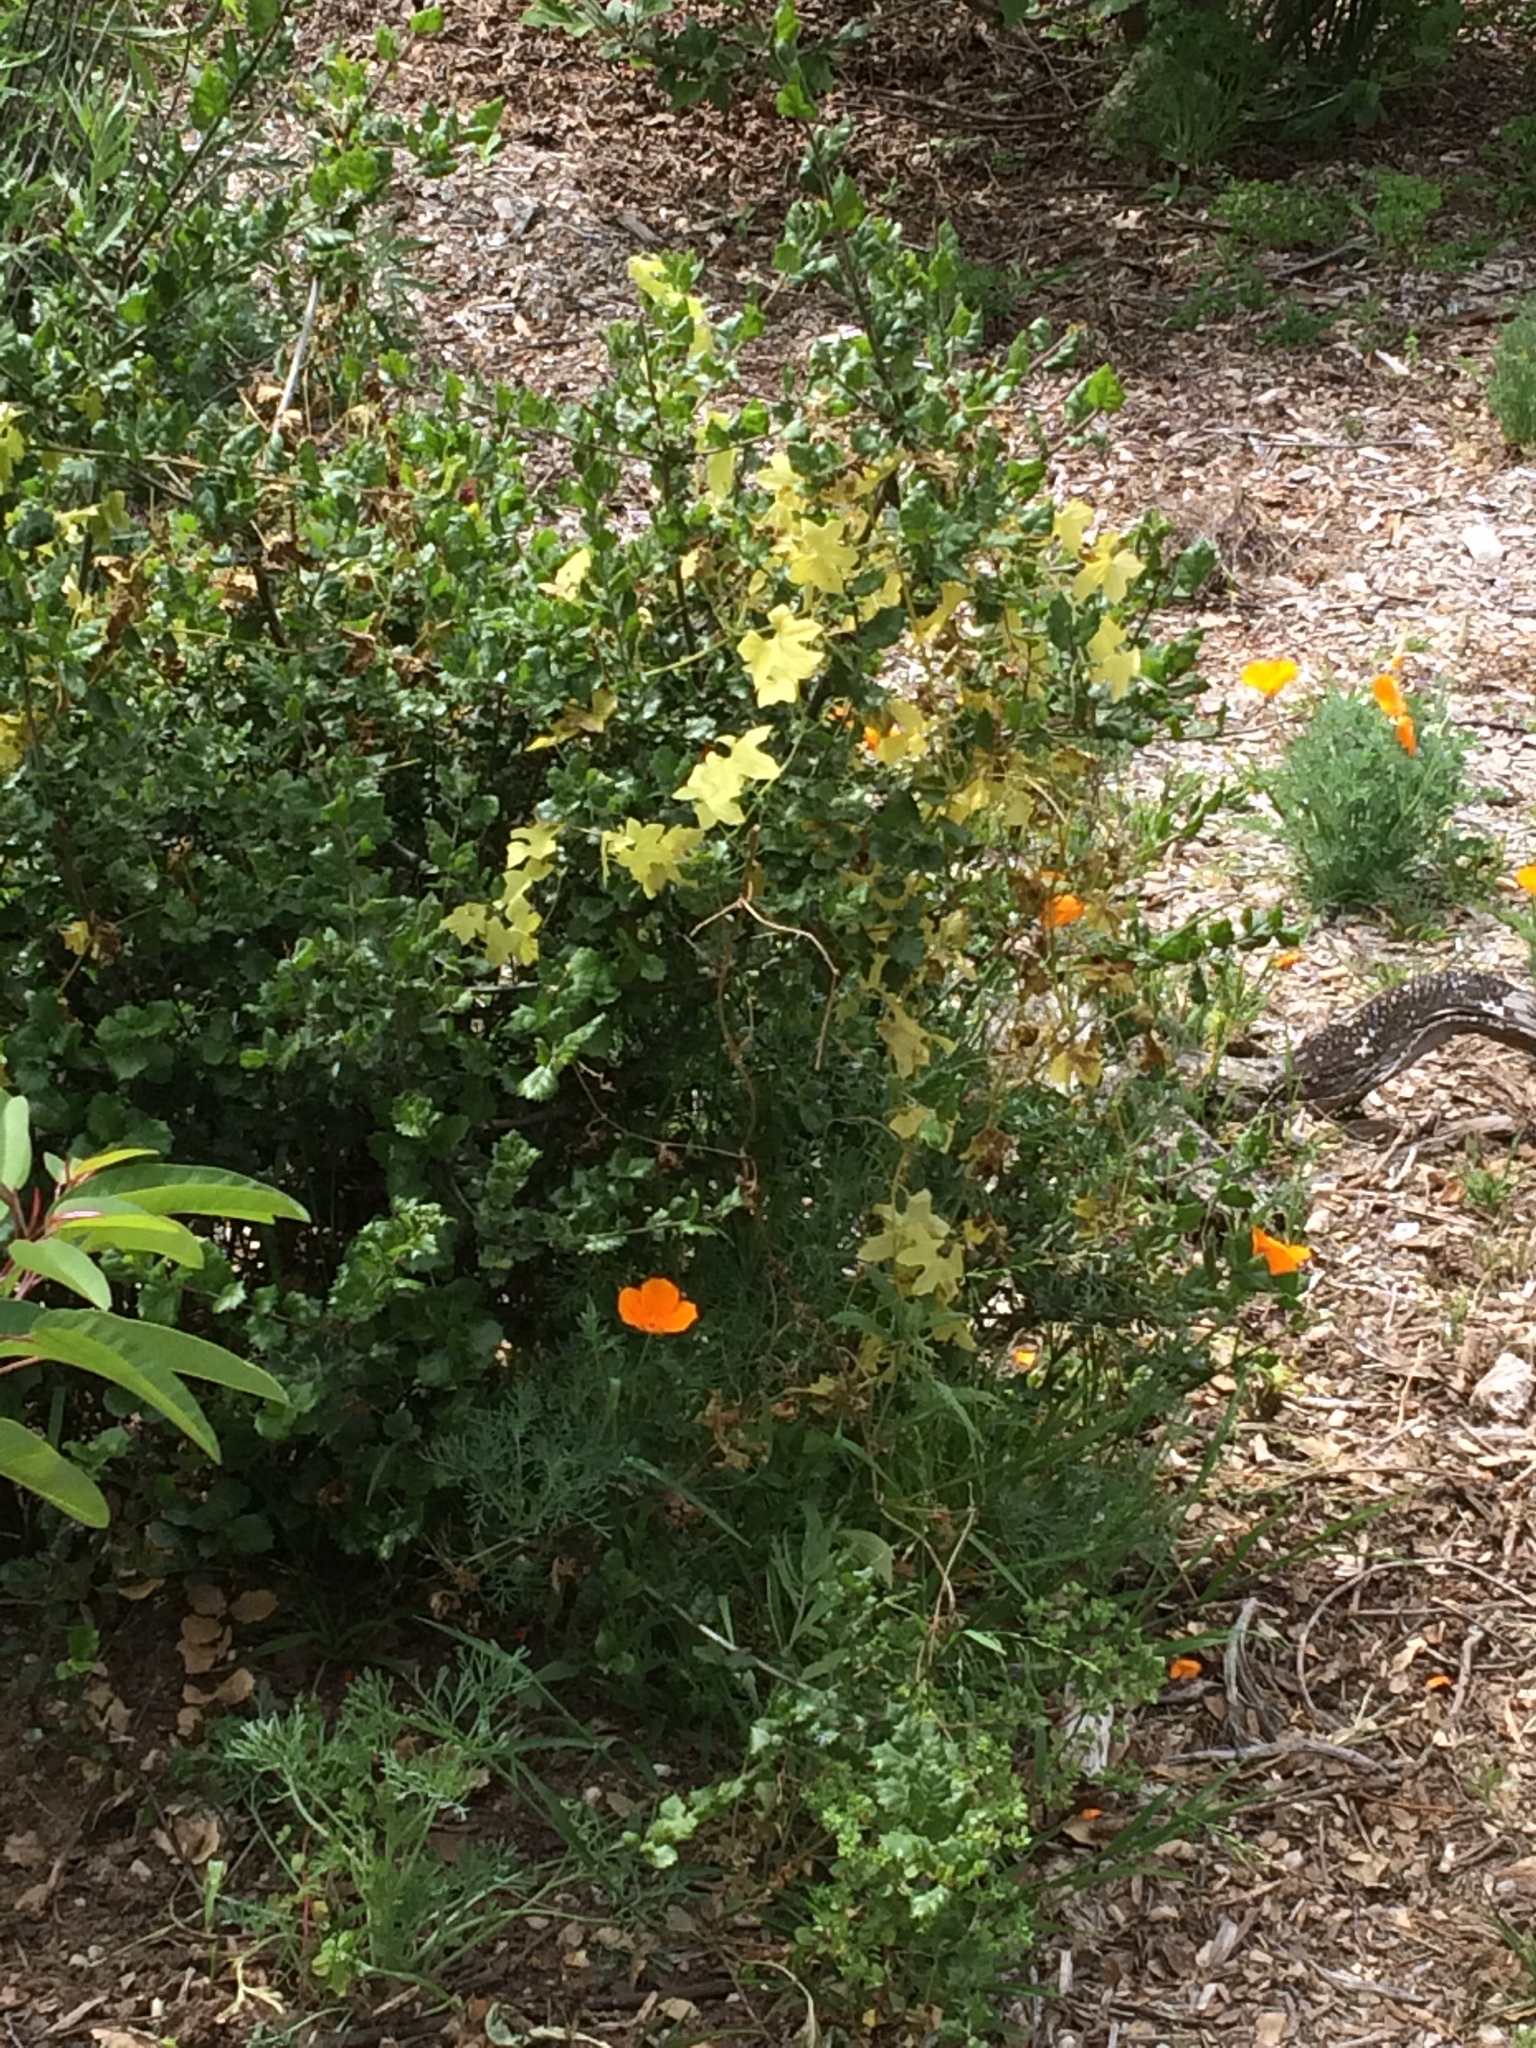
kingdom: Plantae
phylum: Tracheophyta
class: Magnoliopsida
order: Cucurbitales
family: Cucurbitaceae
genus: Marah
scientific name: Marah macrocarpa
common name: Cucamonga manroot
